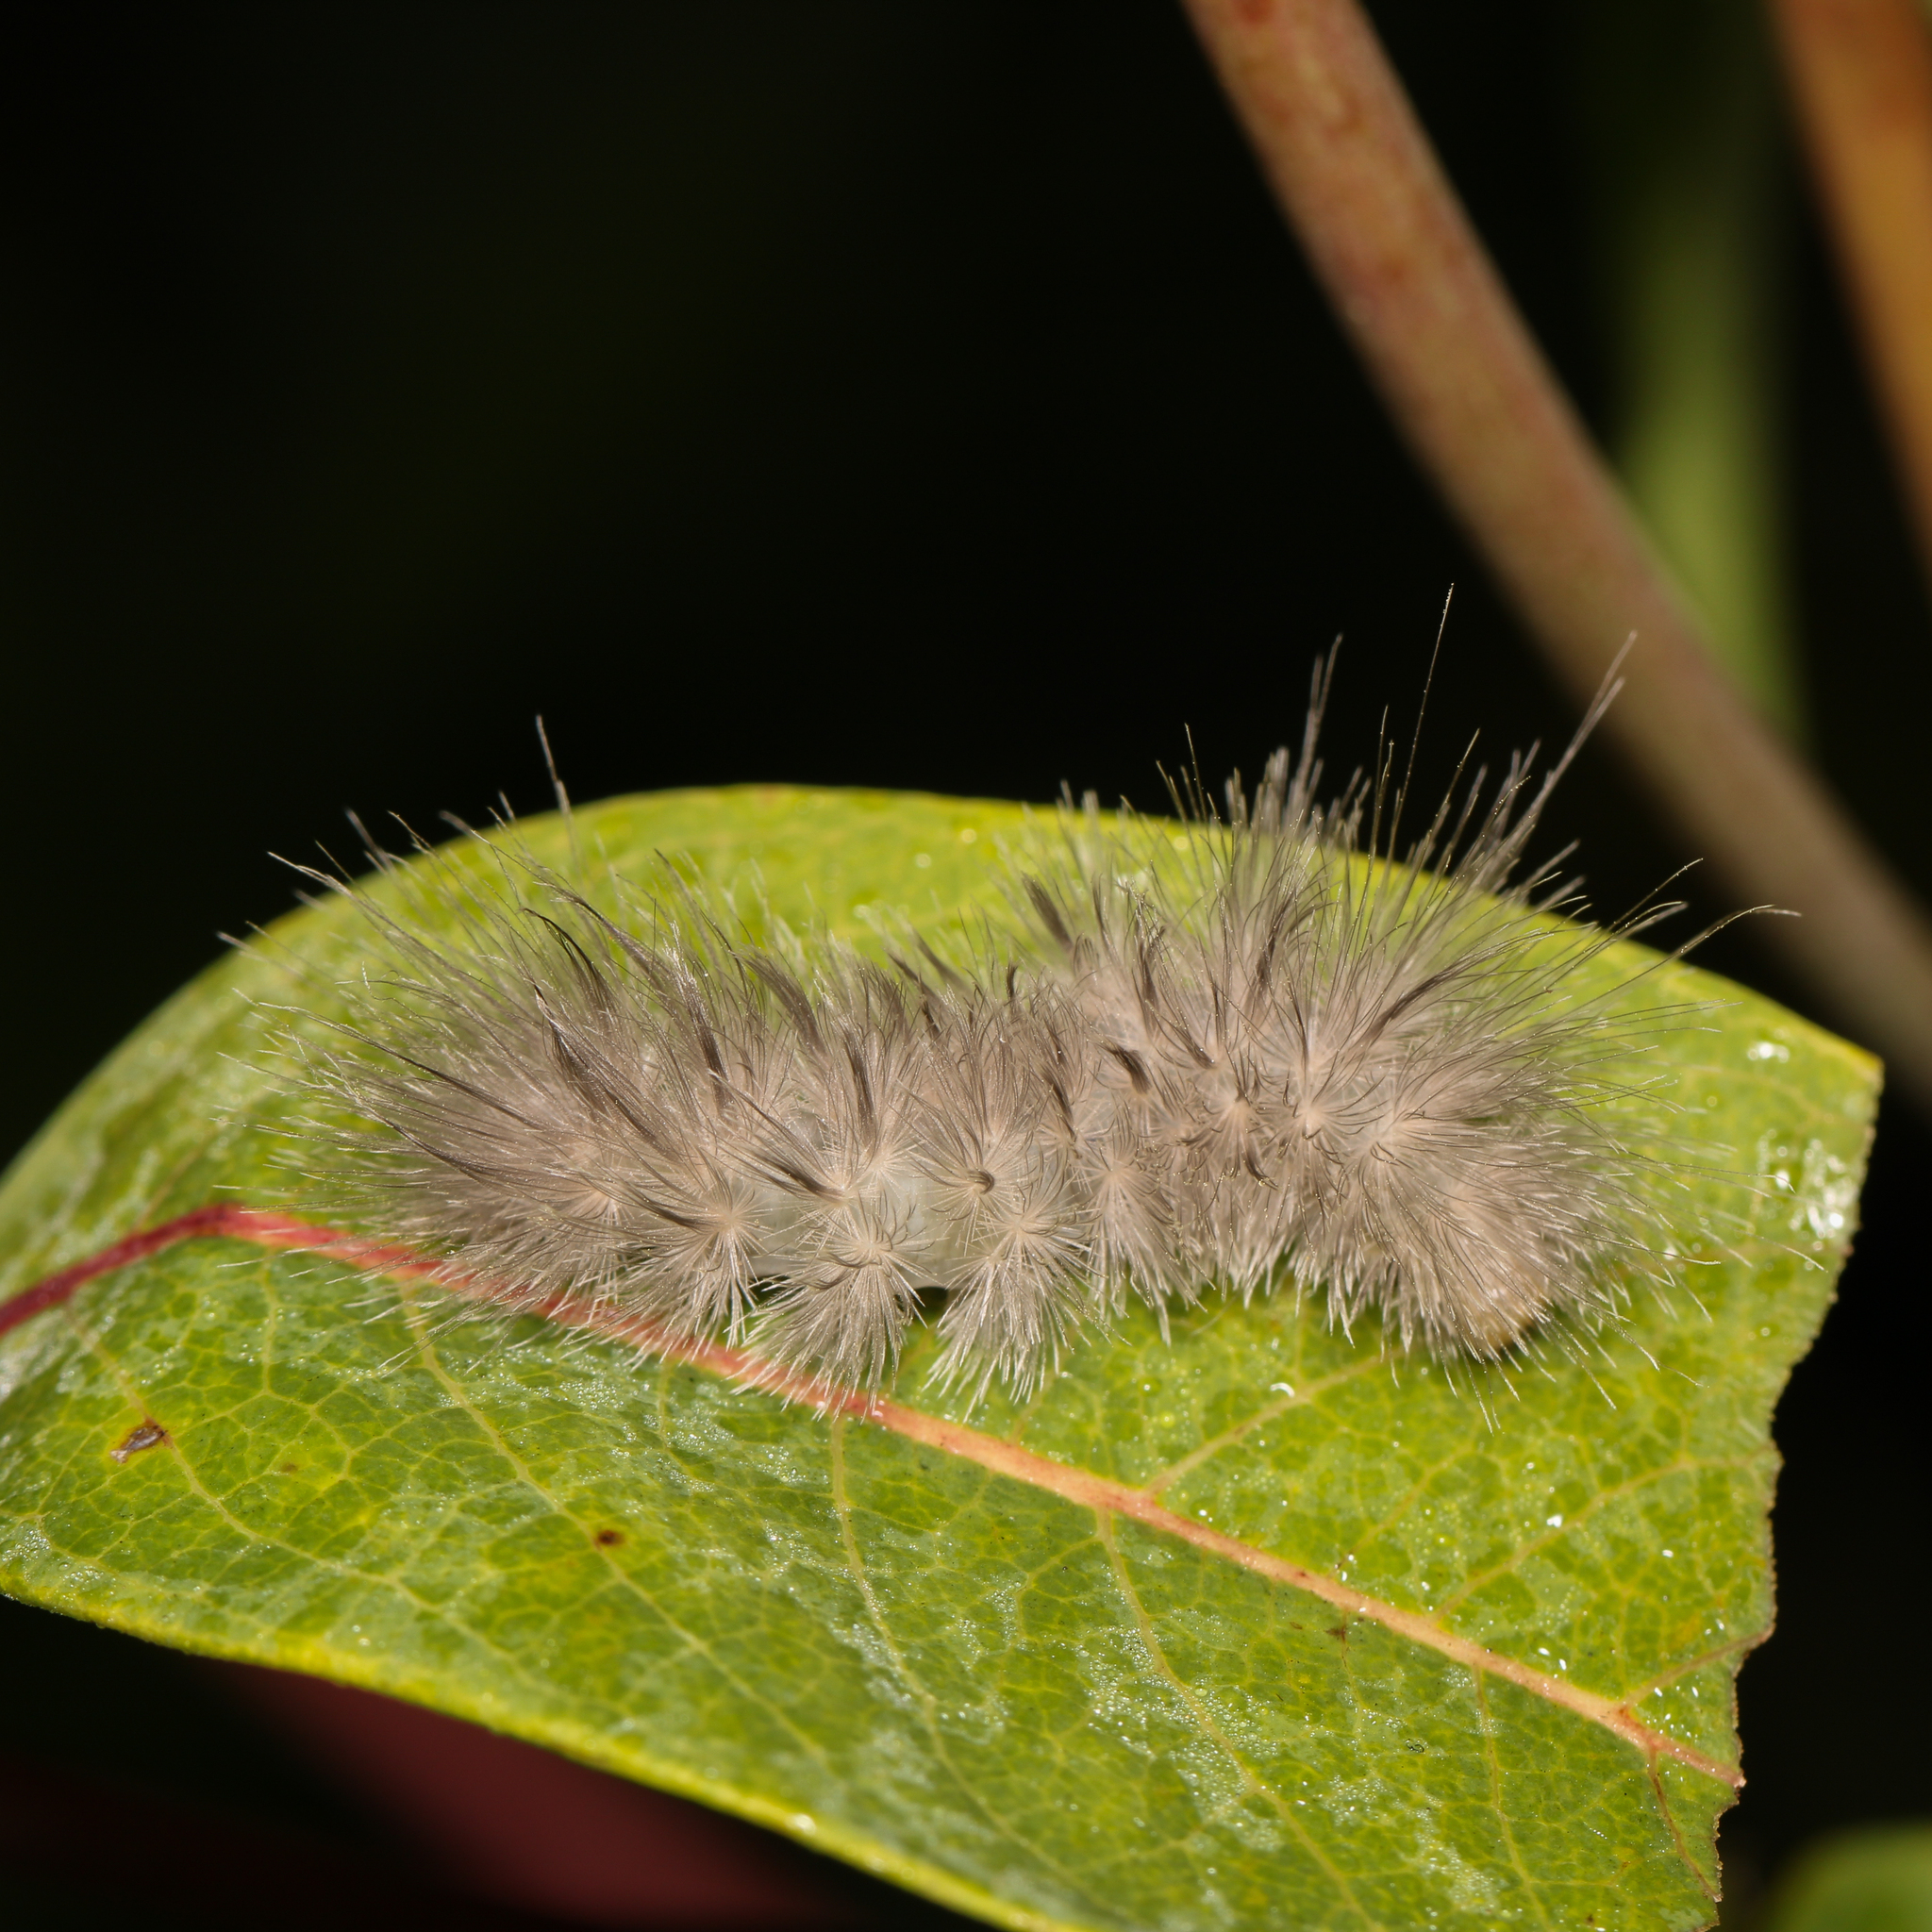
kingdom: Animalia
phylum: Arthropoda
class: Insecta
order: Lepidoptera
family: Erebidae
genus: Cycnia
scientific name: Cycnia tenera
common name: Delicate cycnia moth
